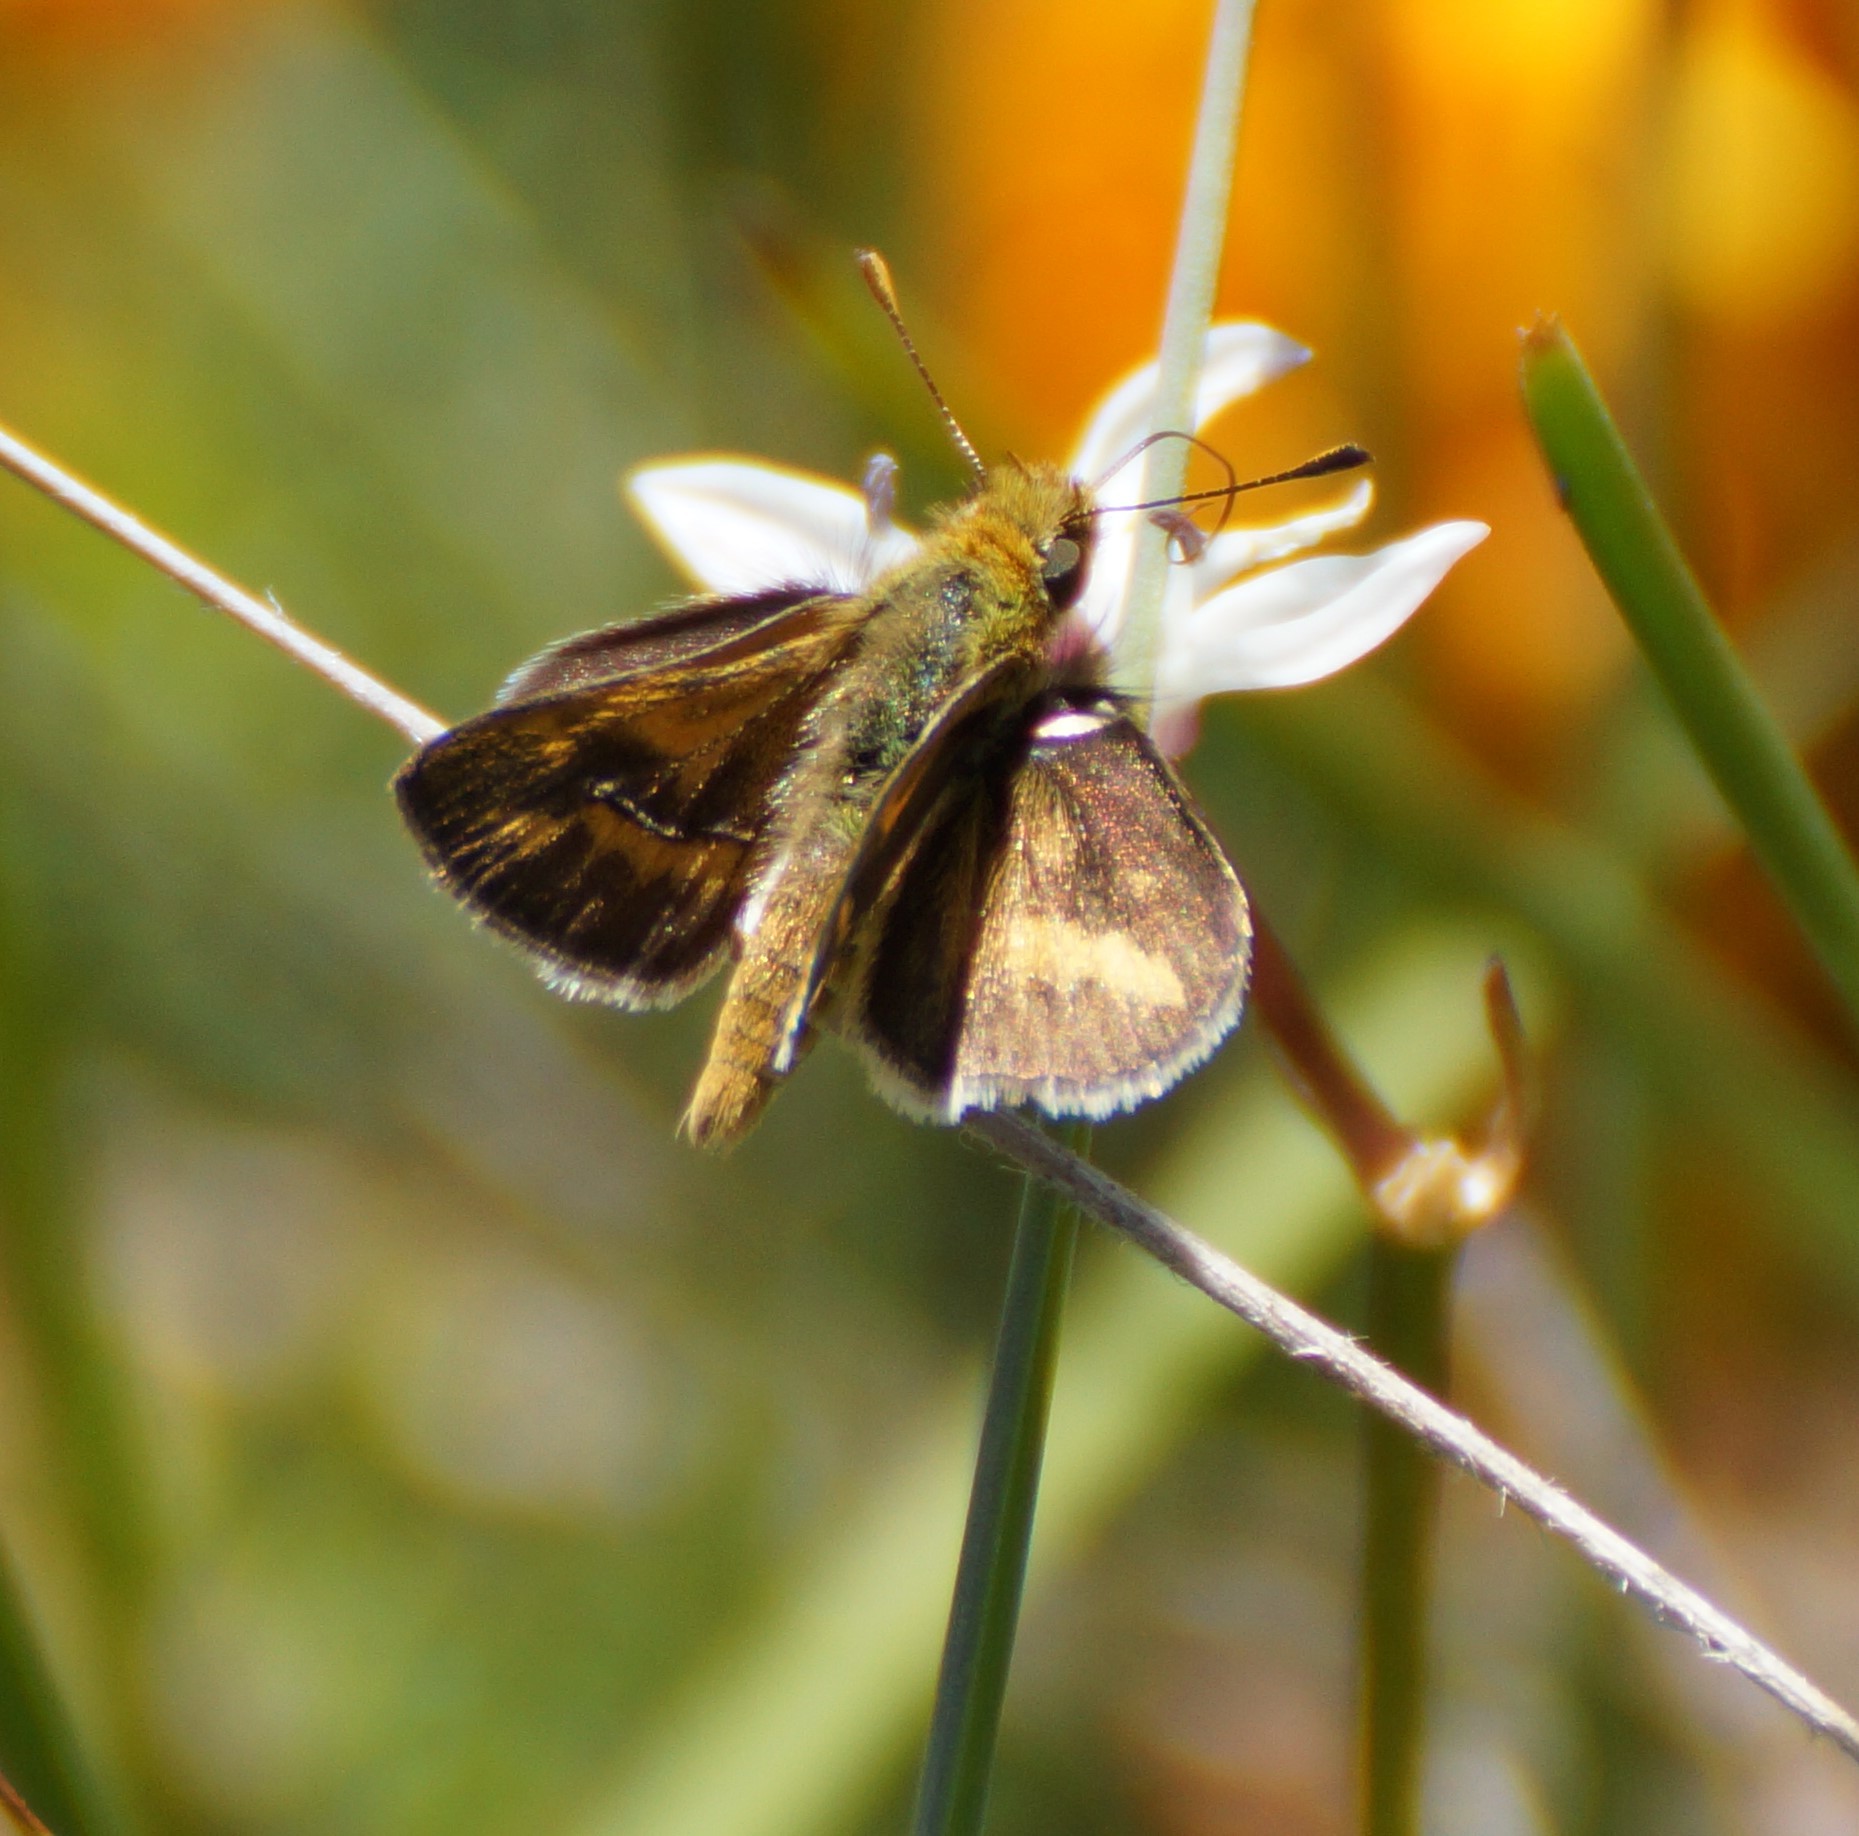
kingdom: Animalia
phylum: Arthropoda
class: Insecta
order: Lepidoptera
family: Hesperiidae
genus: Taractrocera
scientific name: Taractrocera papyria
